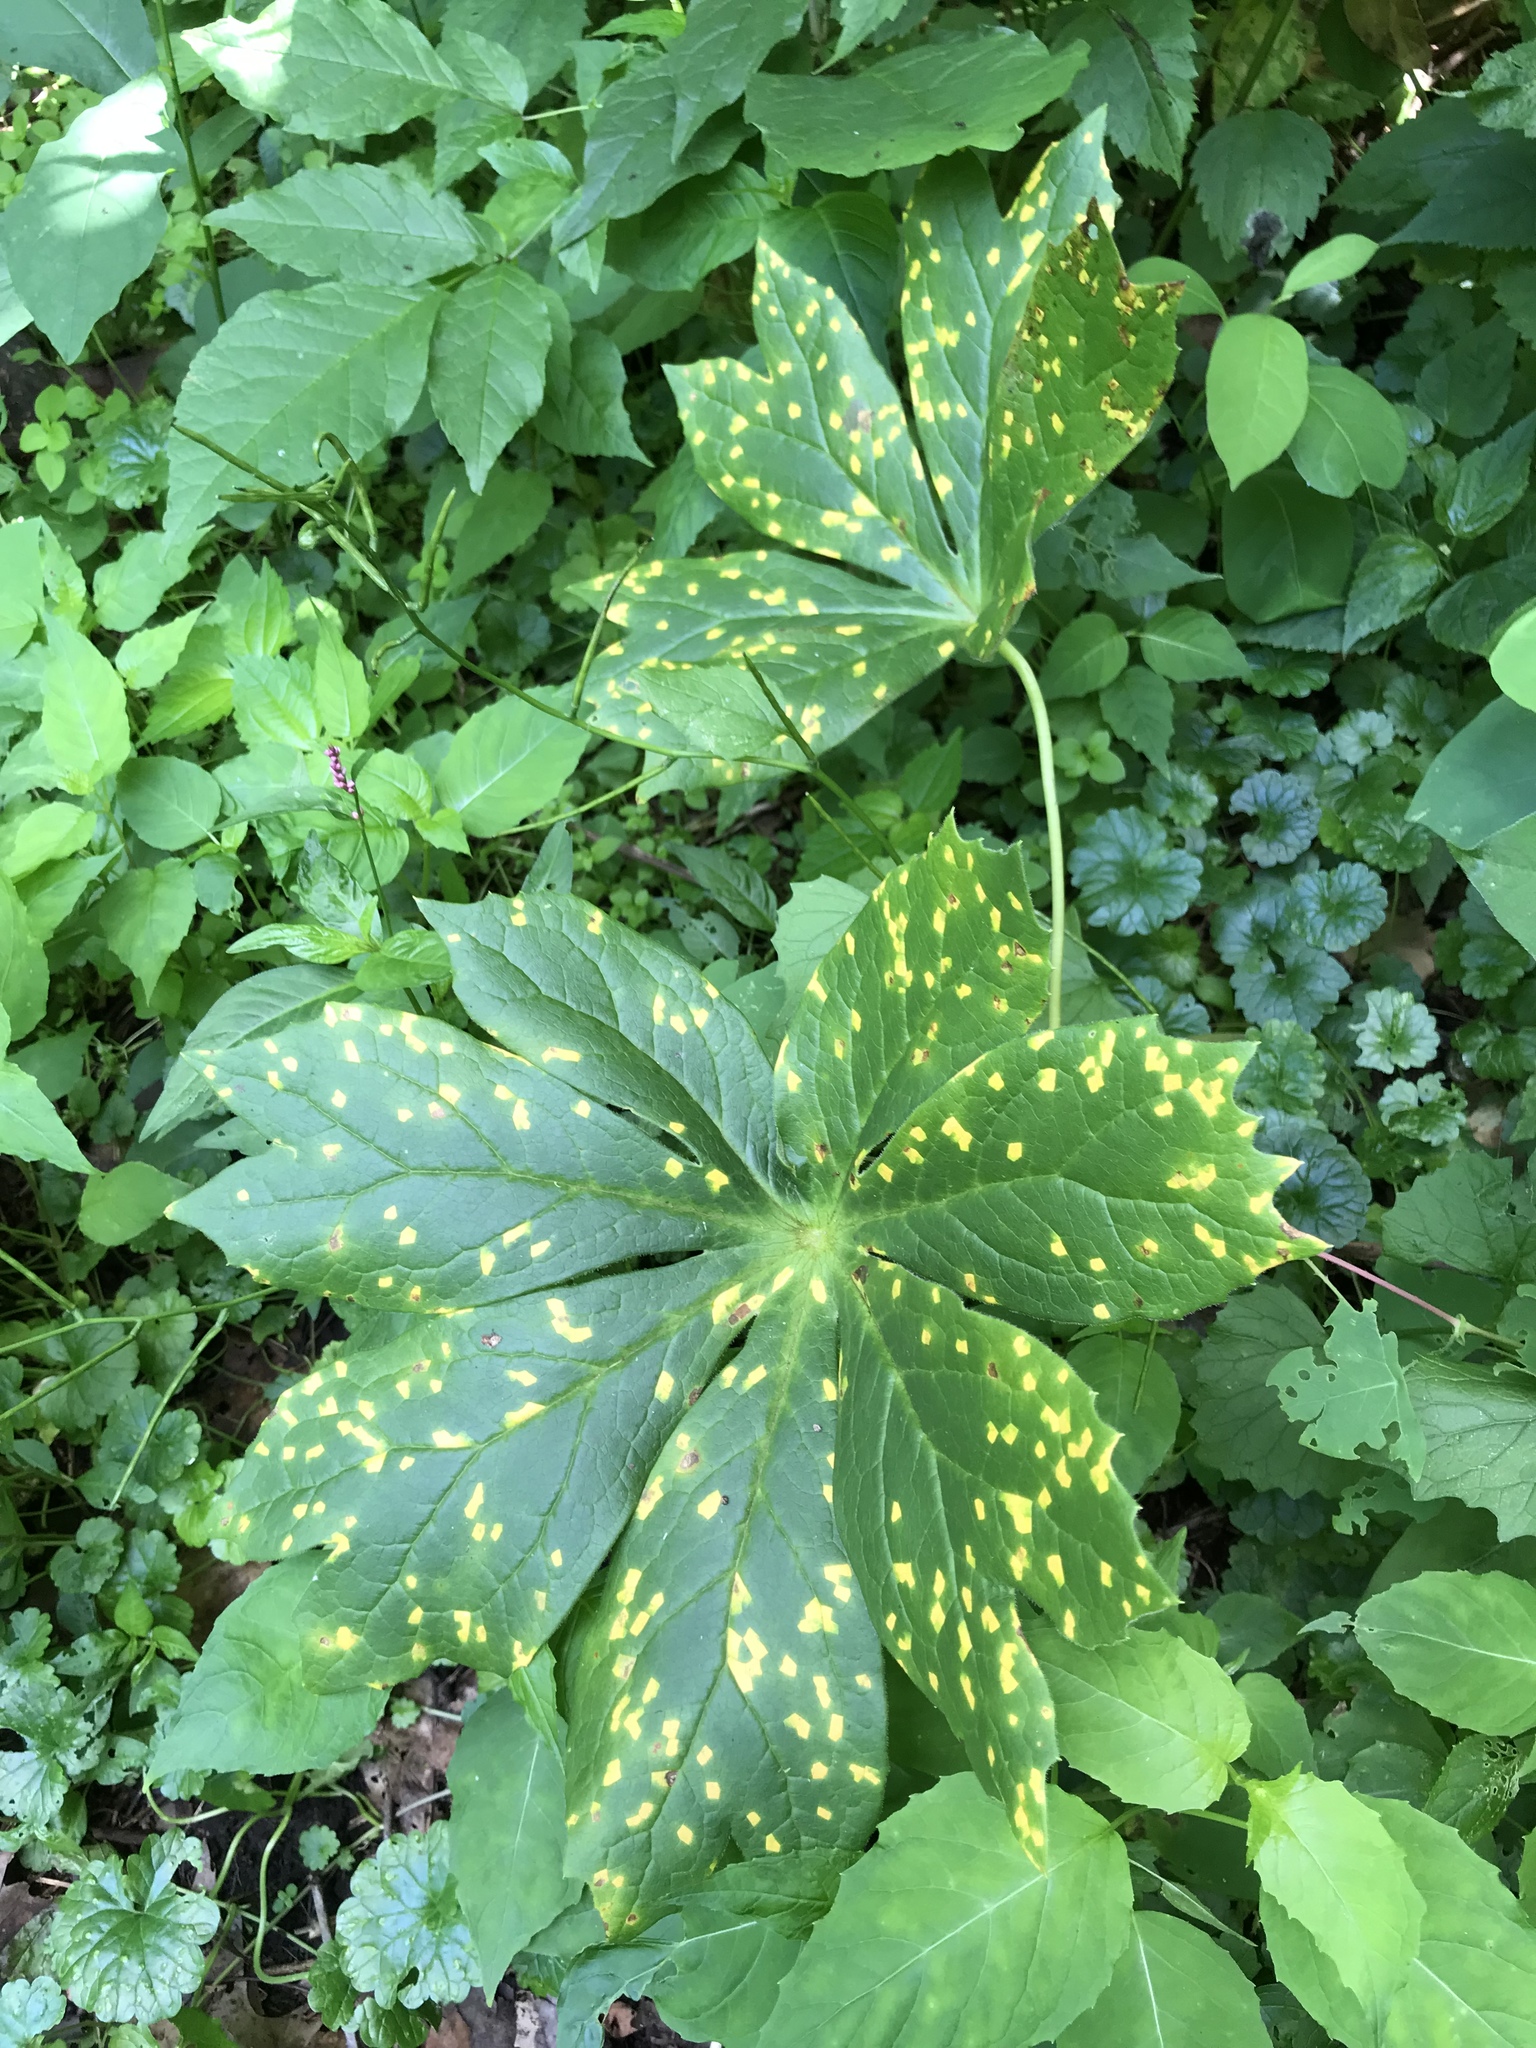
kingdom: Plantae
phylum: Tracheophyta
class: Magnoliopsida
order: Ranunculales
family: Berberidaceae
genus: Podophyllum
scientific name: Podophyllum peltatum
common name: Wild mandrake
